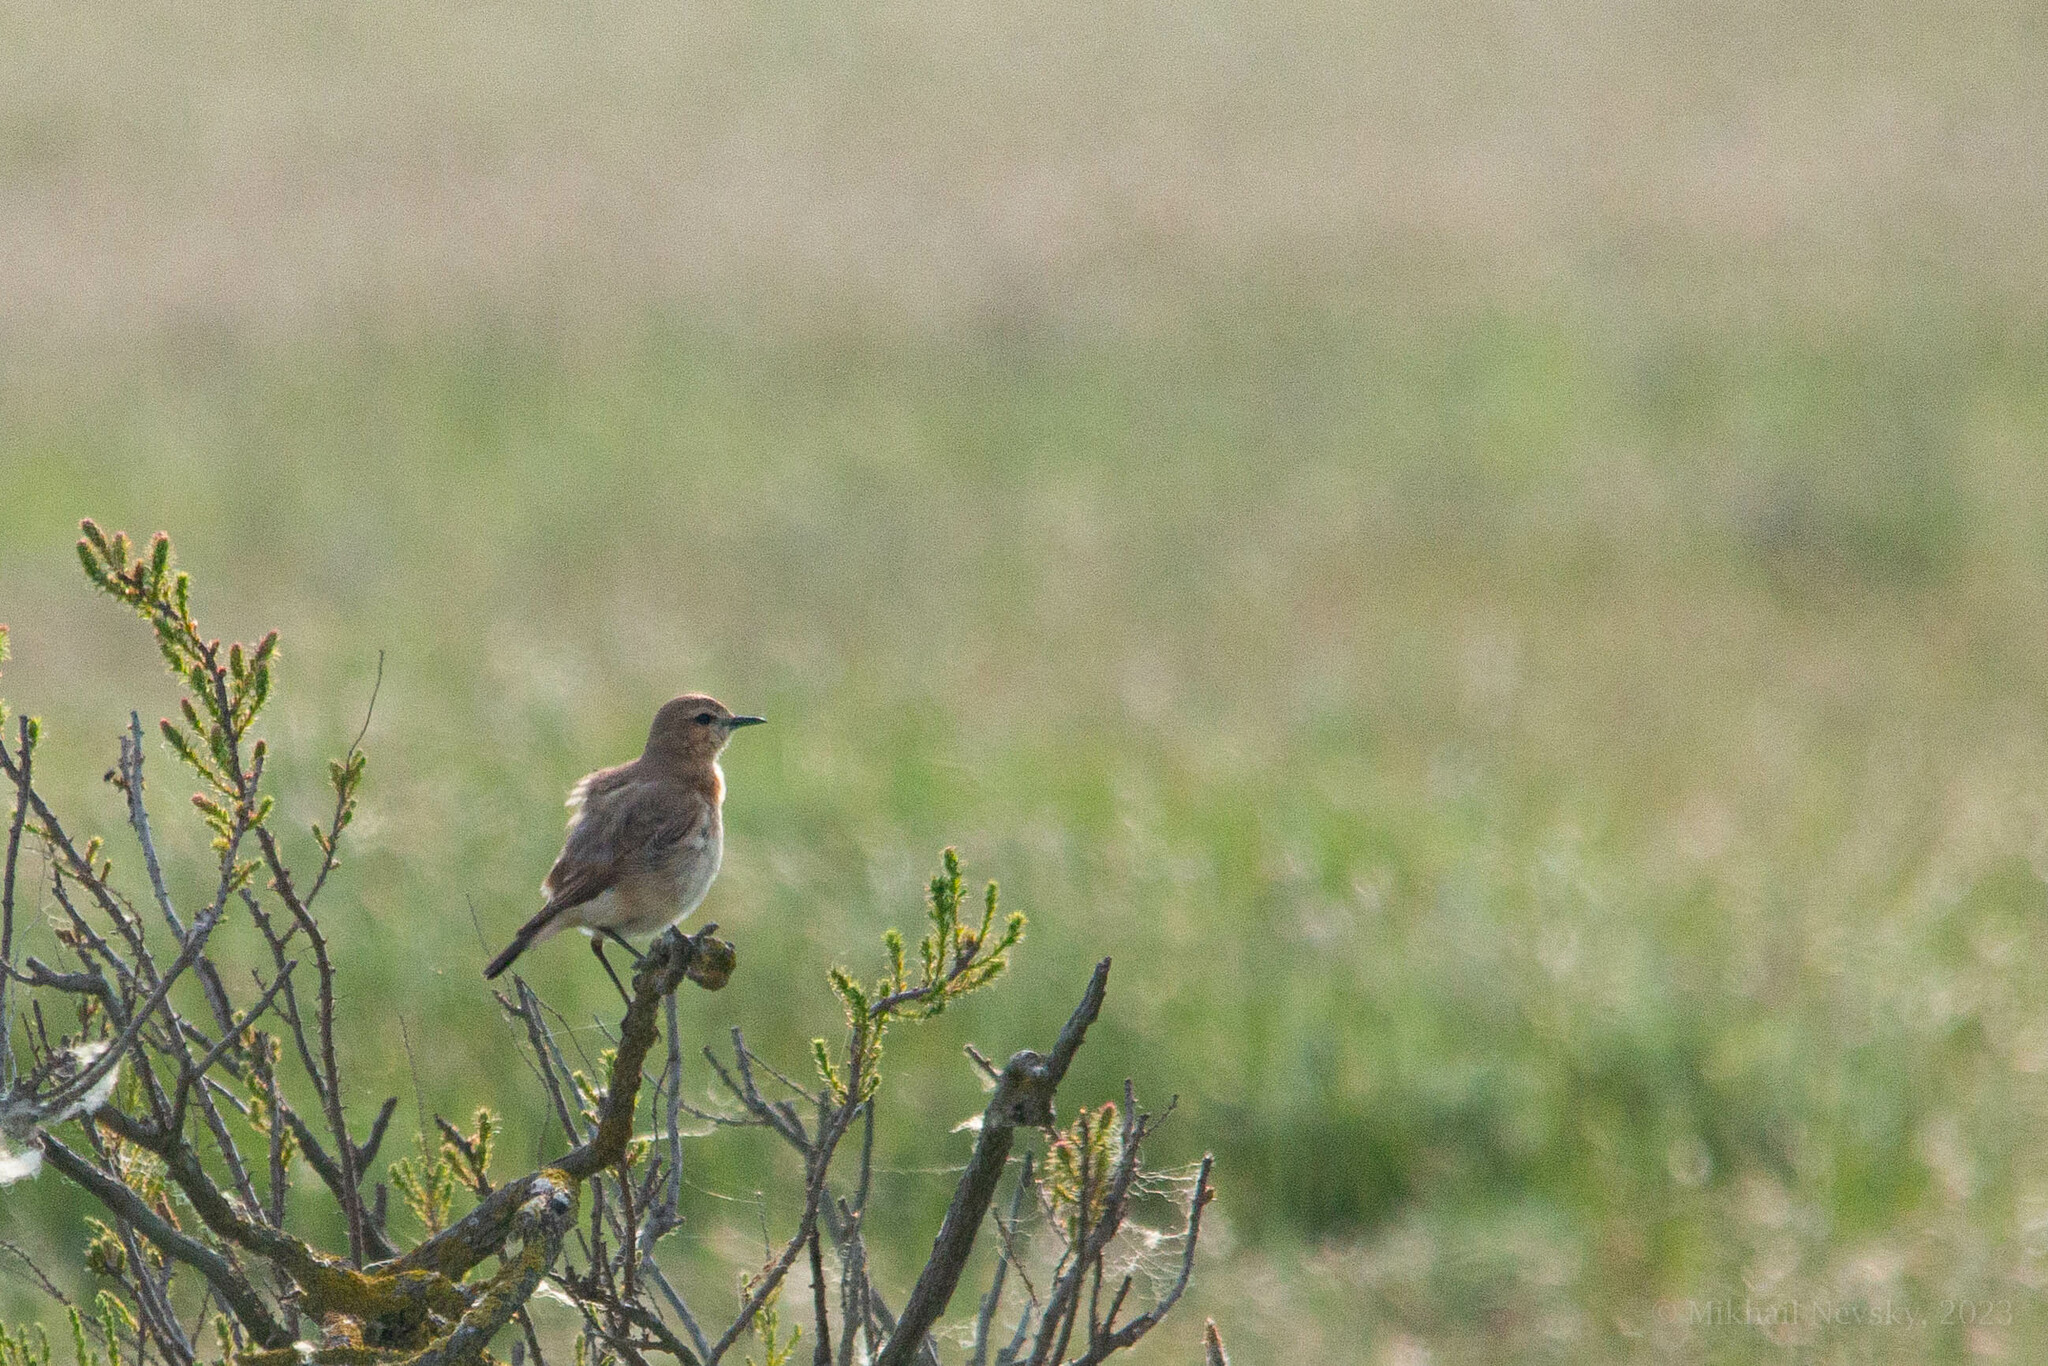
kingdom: Animalia
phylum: Chordata
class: Aves
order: Passeriformes
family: Muscicapidae
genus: Oenanthe
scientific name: Oenanthe isabellina
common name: Isabelline wheatear
